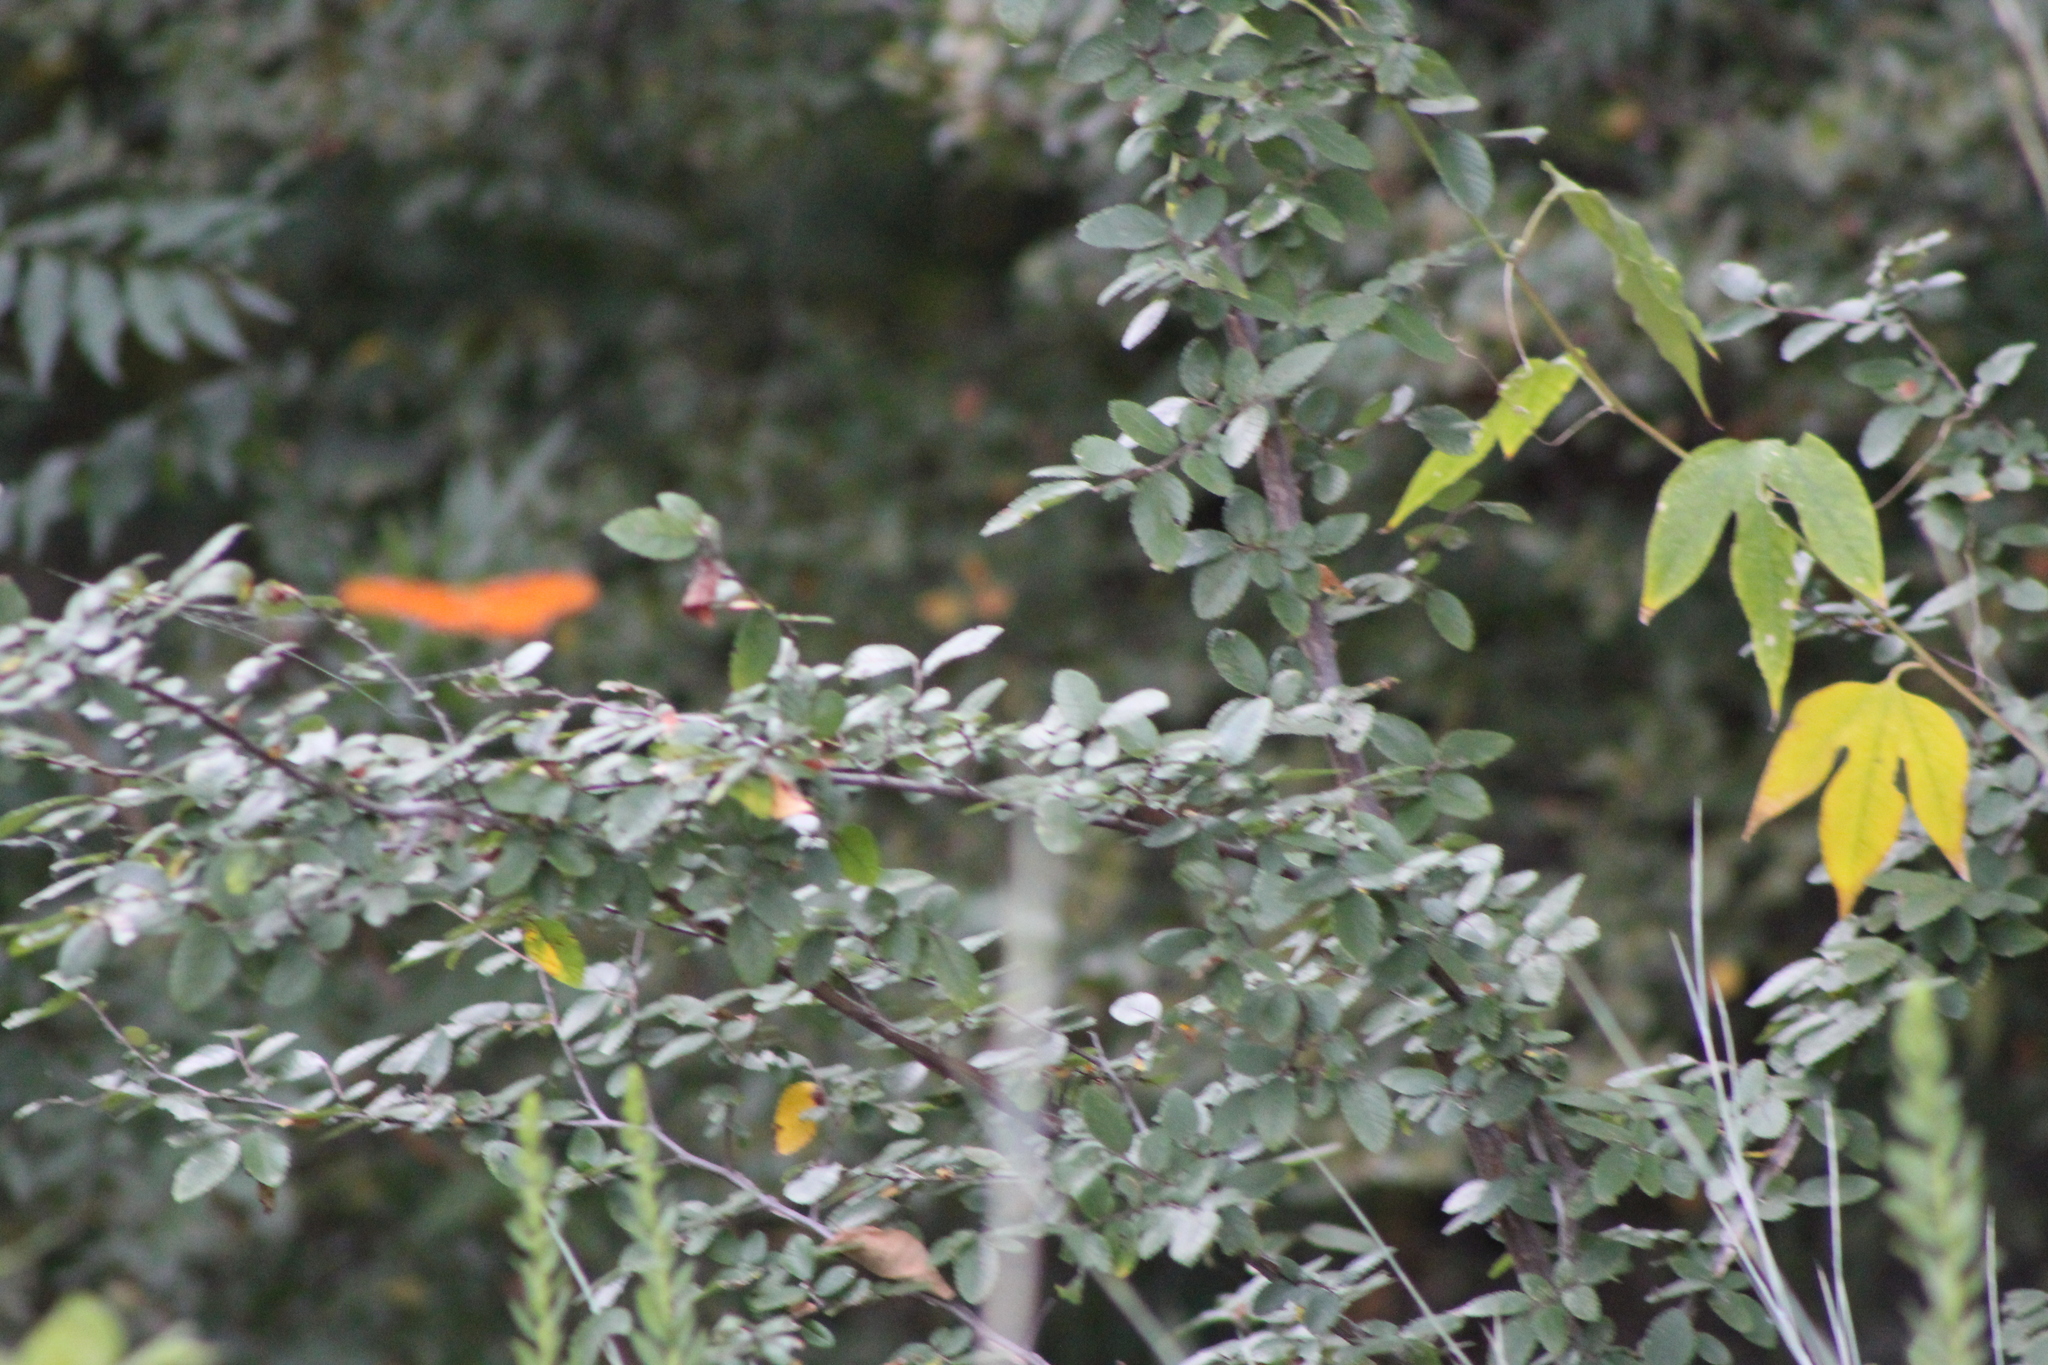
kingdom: Animalia
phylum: Arthropoda
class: Insecta
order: Lepidoptera
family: Nymphalidae
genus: Dione
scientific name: Dione vanillae
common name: Gulf fritillary
